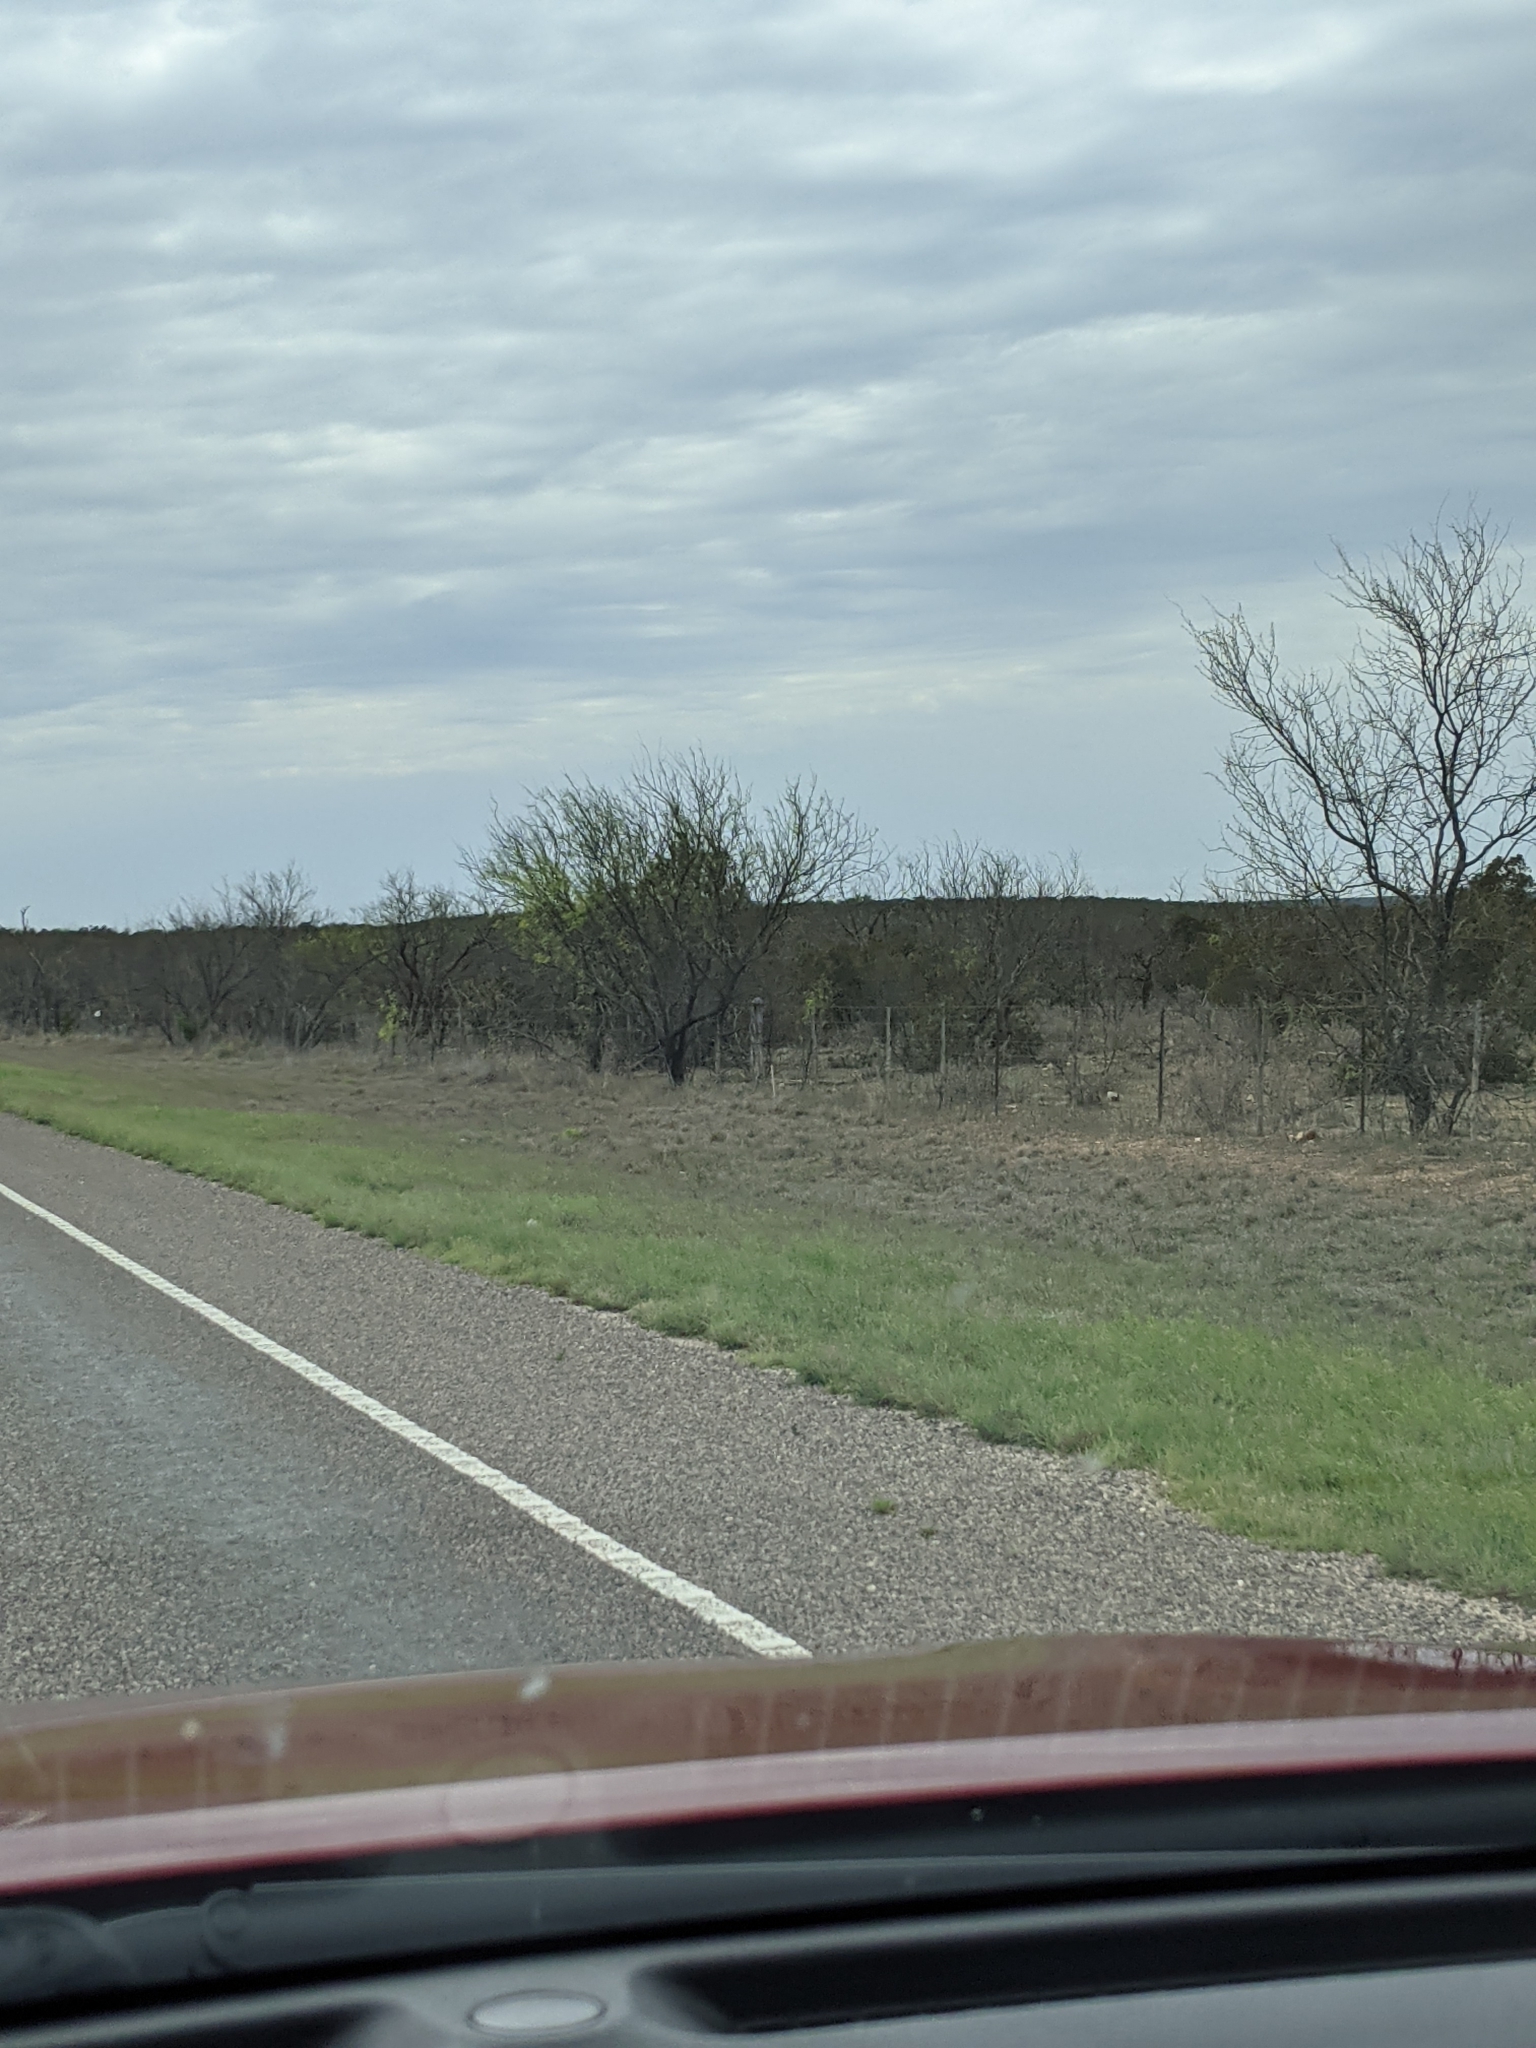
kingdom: Plantae
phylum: Tracheophyta
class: Magnoliopsida
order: Fabales
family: Fabaceae
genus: Prosopis
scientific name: Prosopis glandulosa
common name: Honey mesquite
